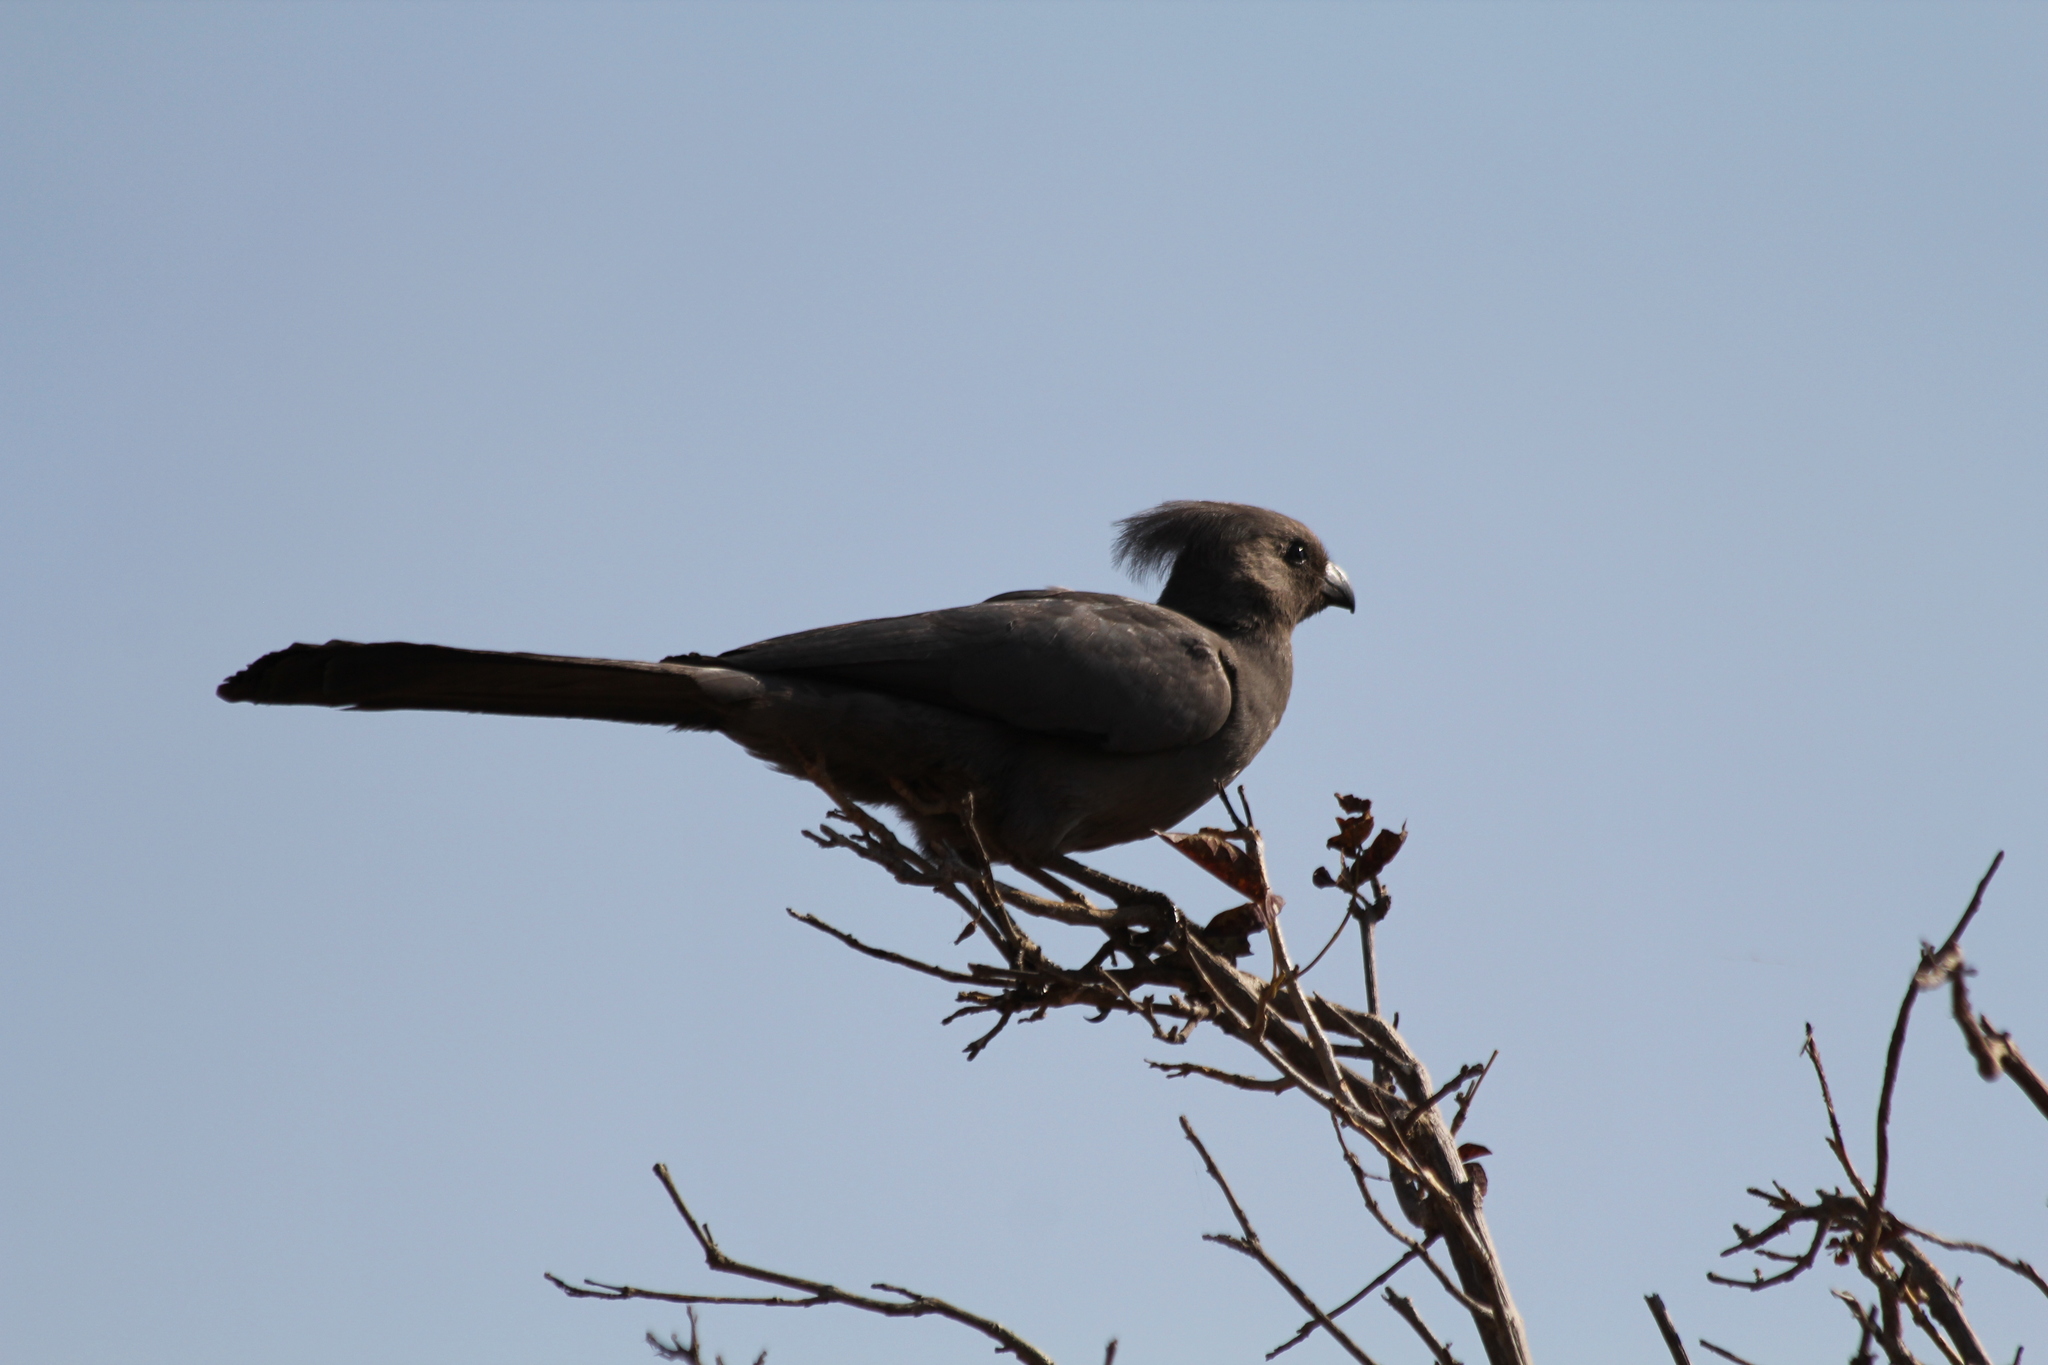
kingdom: Animalia
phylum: Chordata
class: Aves
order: Musophagiformes
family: Musophagidae
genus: Corythaixoides
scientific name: Corythaixoides concolor
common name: Grey go-away-bird
